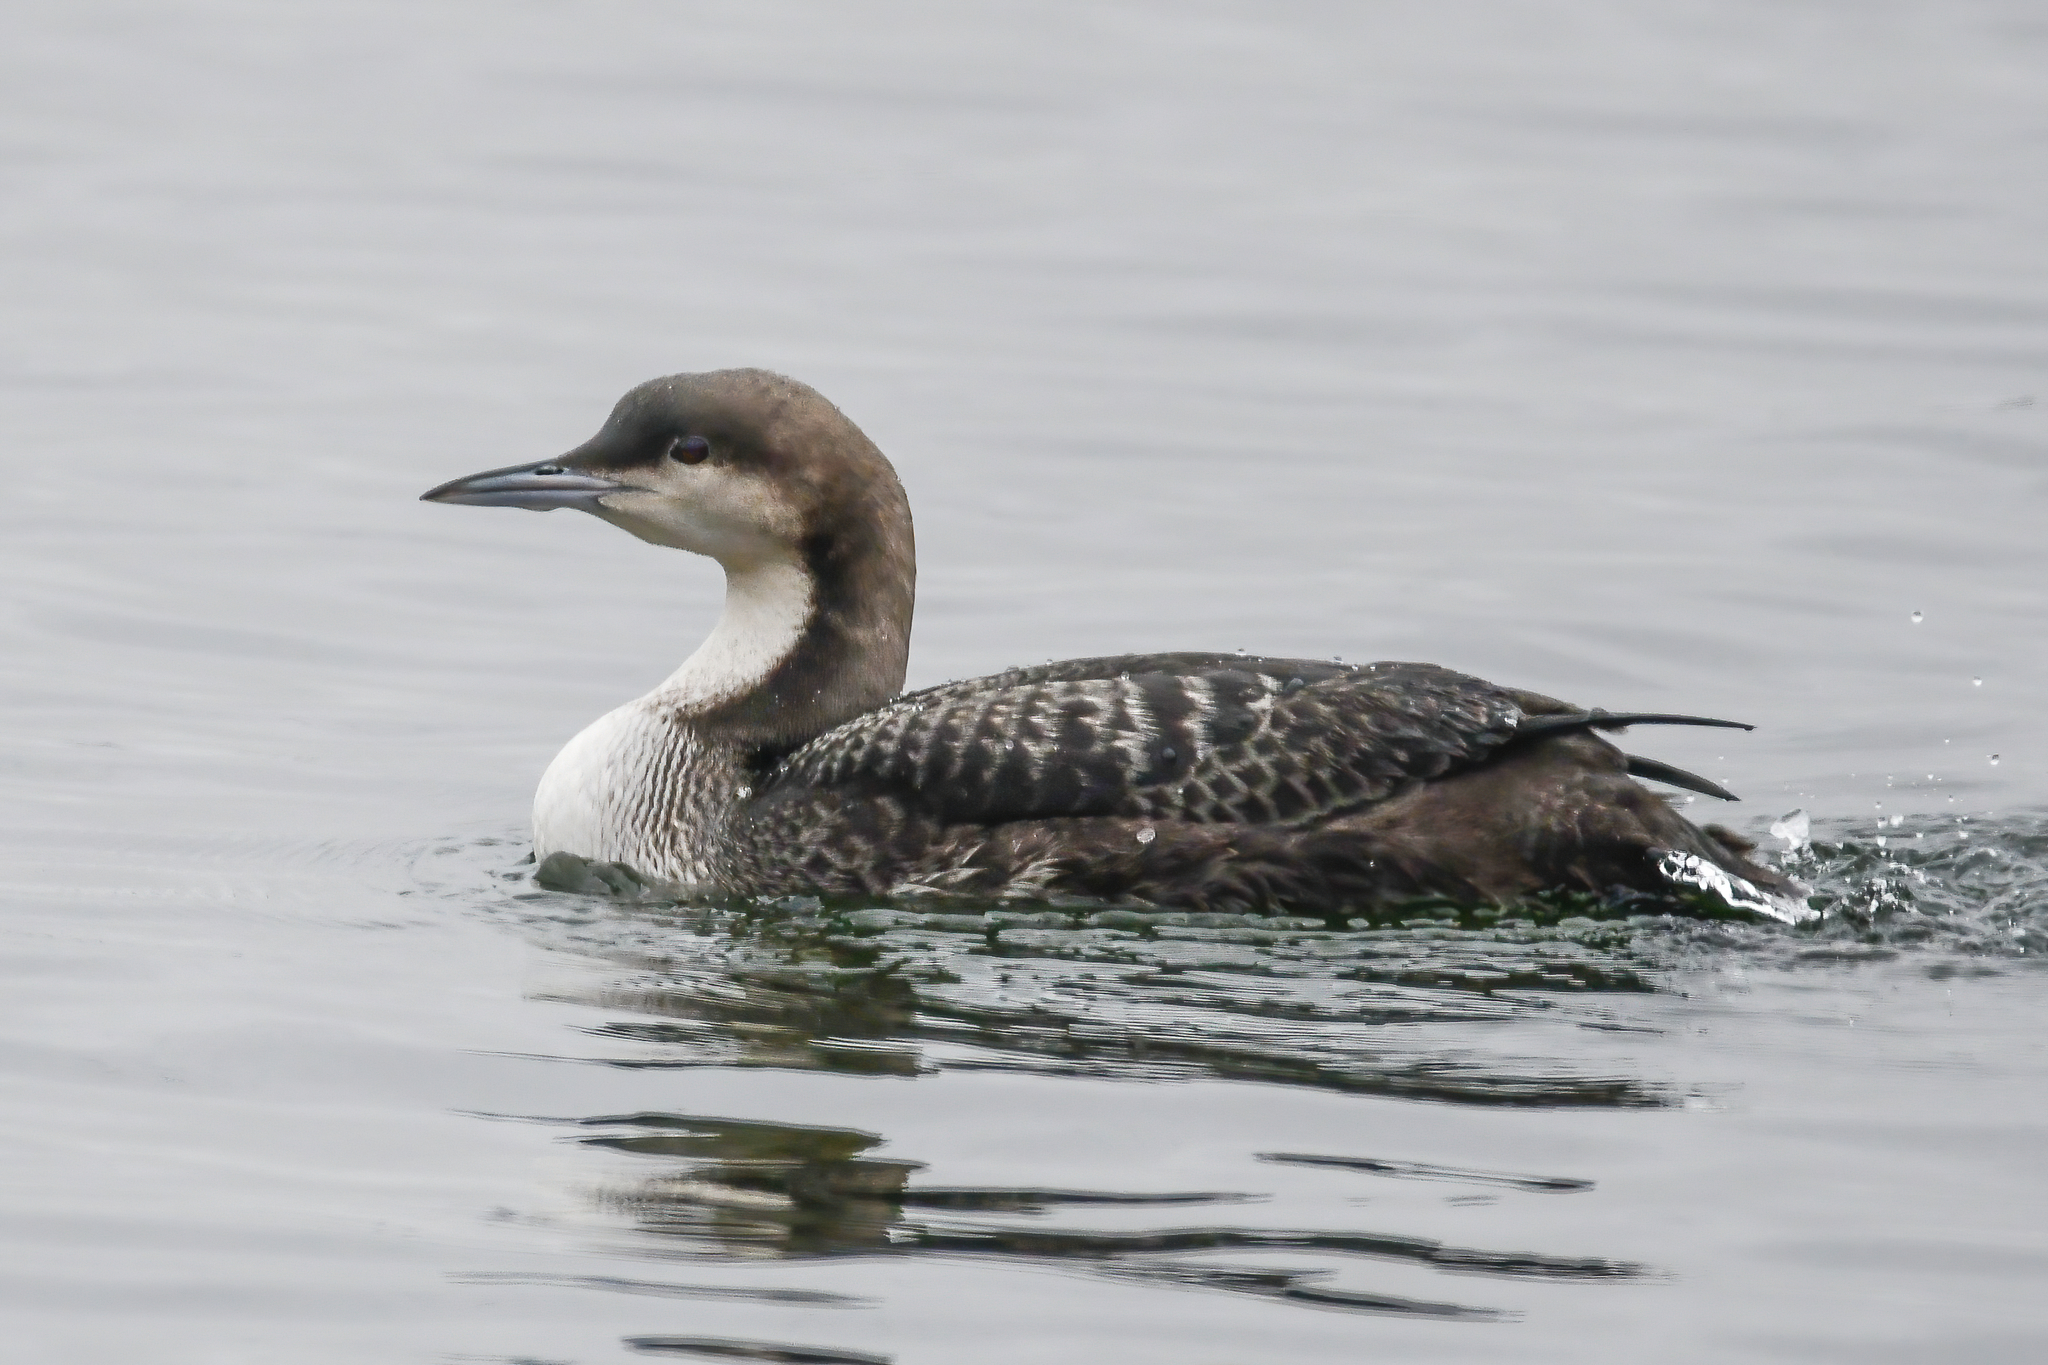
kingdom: Animalia
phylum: Chordata
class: Aves
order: Gaviiformes
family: Gaviidae
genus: Gavia
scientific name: Gavia pacifica
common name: Pacific loon
